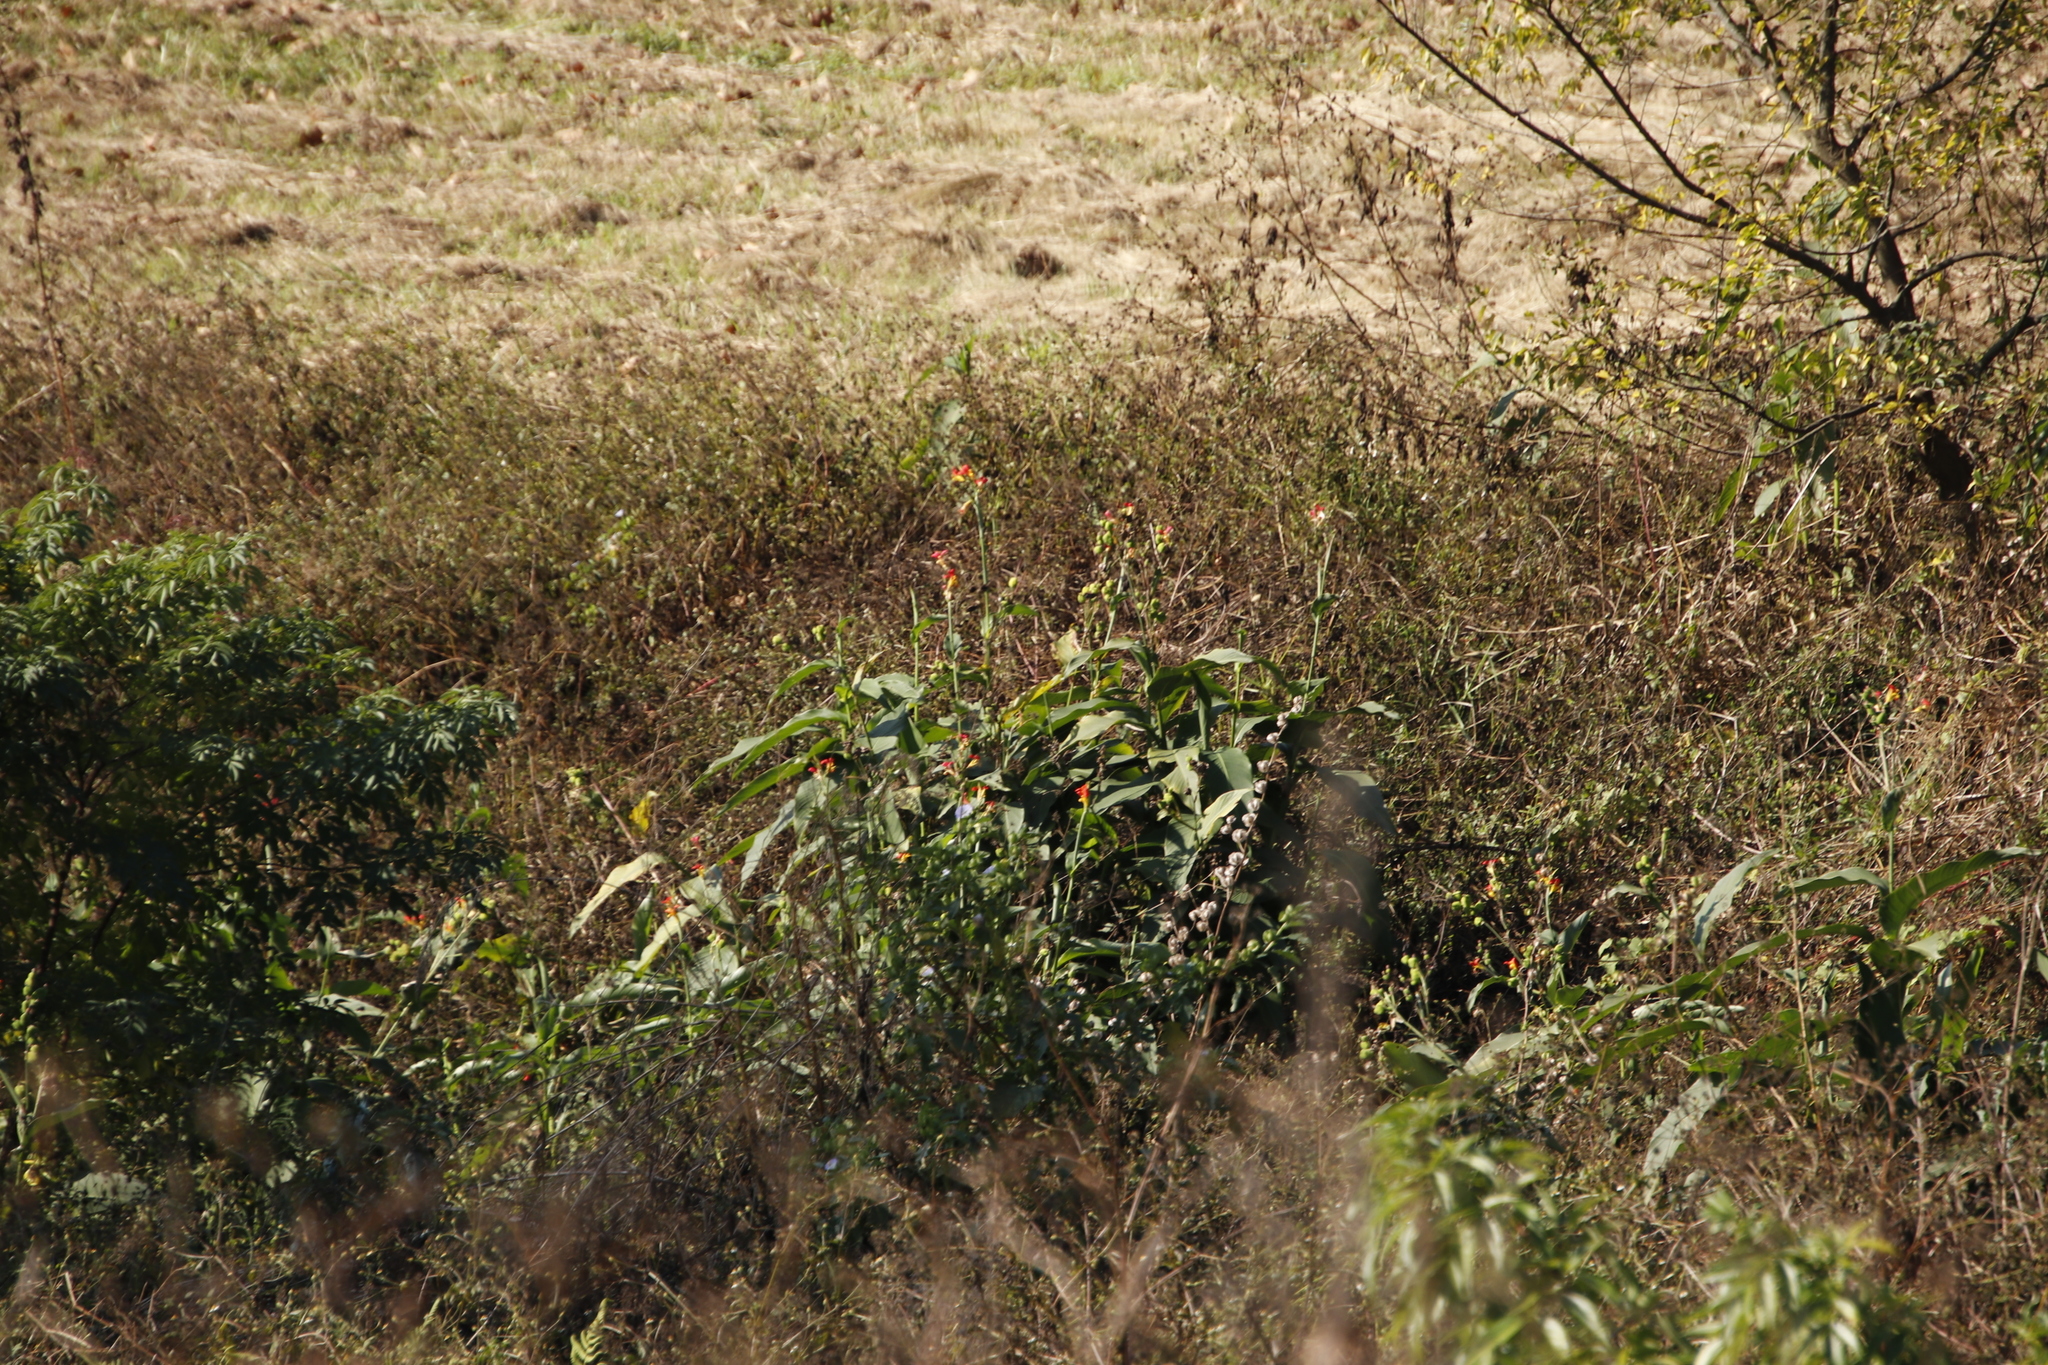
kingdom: Plantae
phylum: Tracheophyta
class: Liliopsida
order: Zingiberales
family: Cannaceae
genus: Canna
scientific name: Canna indica
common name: Indian shot
